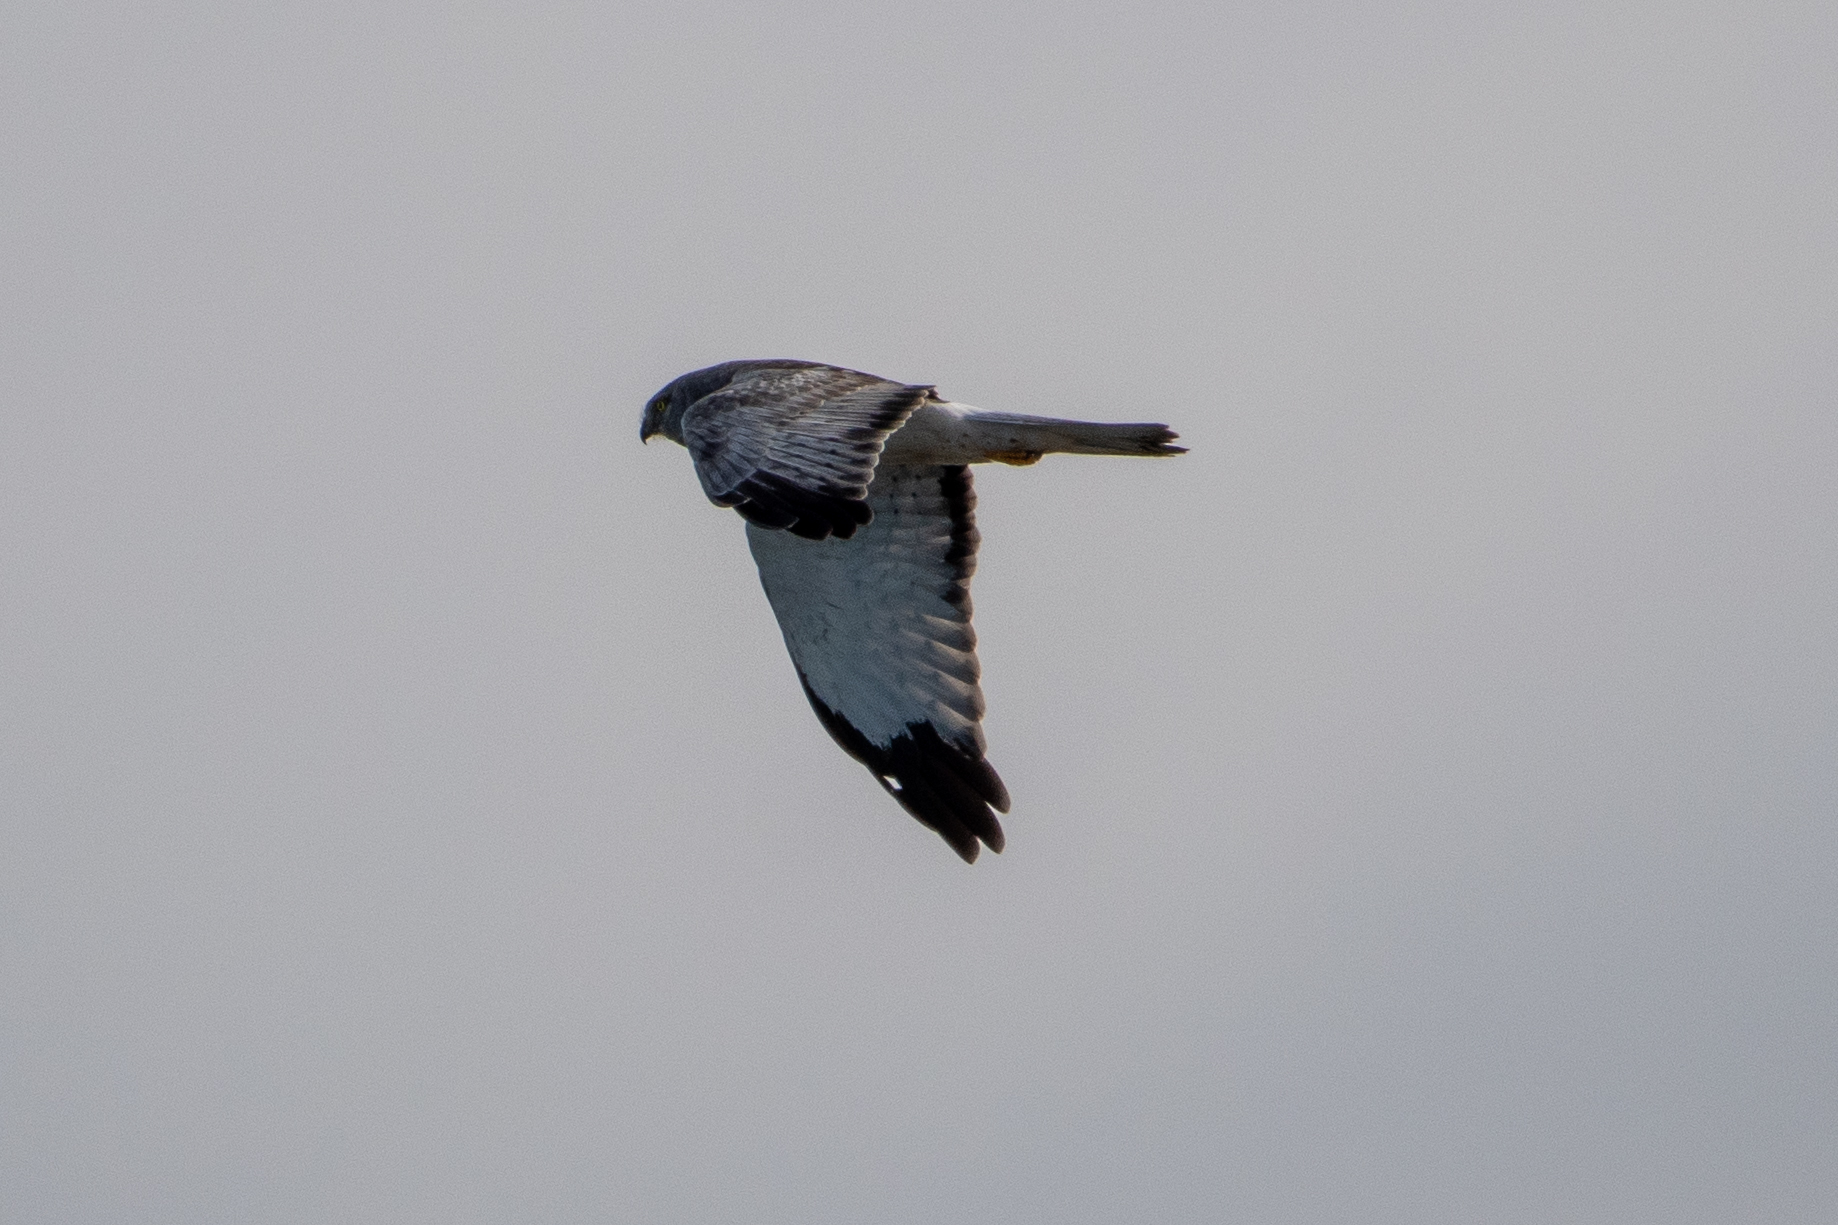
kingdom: Animalia
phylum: Chordata
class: Aves
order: Accipitriformes
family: Accipitridae
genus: Circus
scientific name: Circus cyaneus
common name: Hen harrier
